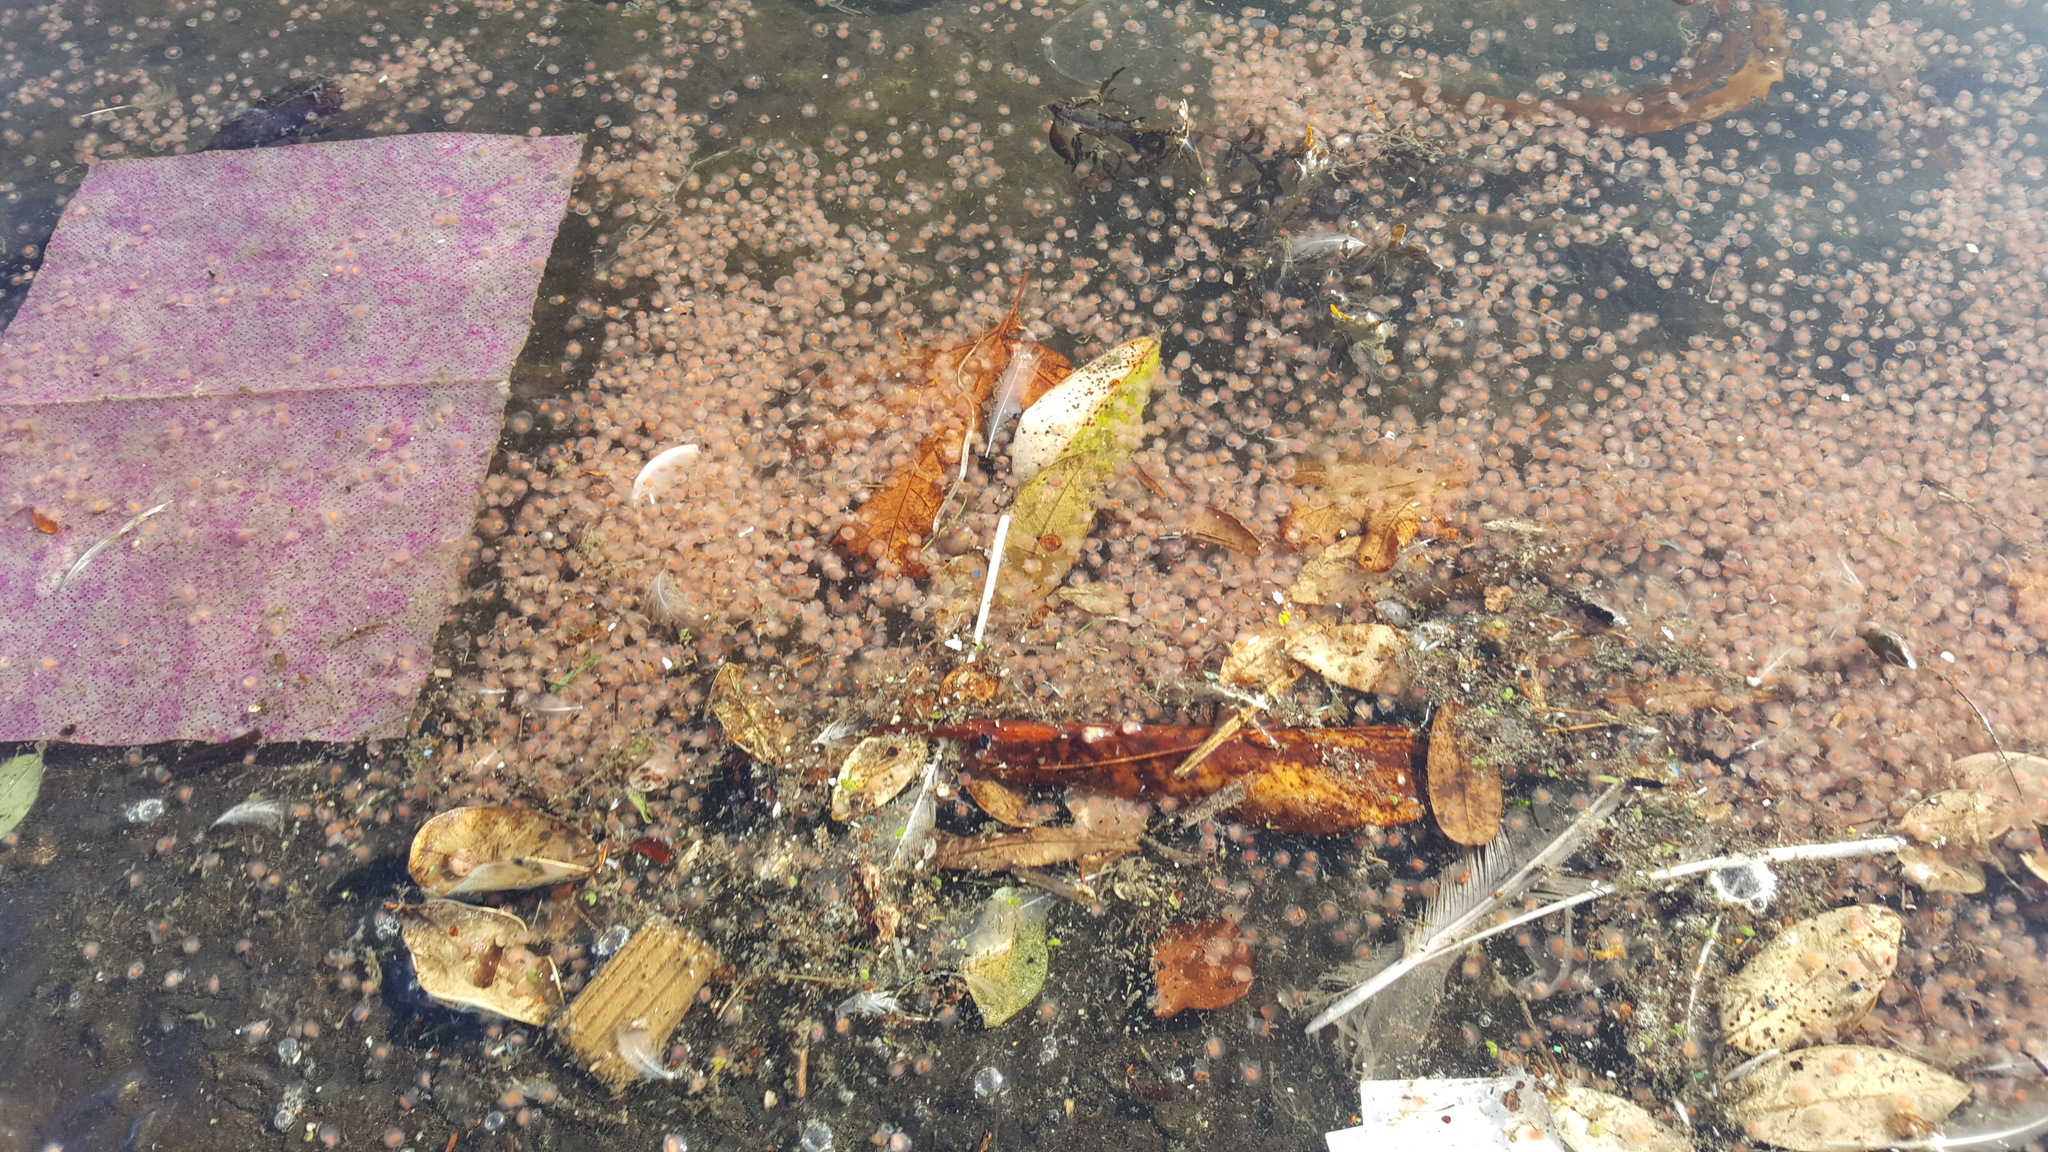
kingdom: Animalia
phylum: Cnidaria
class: Hydrozoa
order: Anthoathecata
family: Oceaniidae
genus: Turritopsis
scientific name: Turritopsis rubra
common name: Crimson jelly
